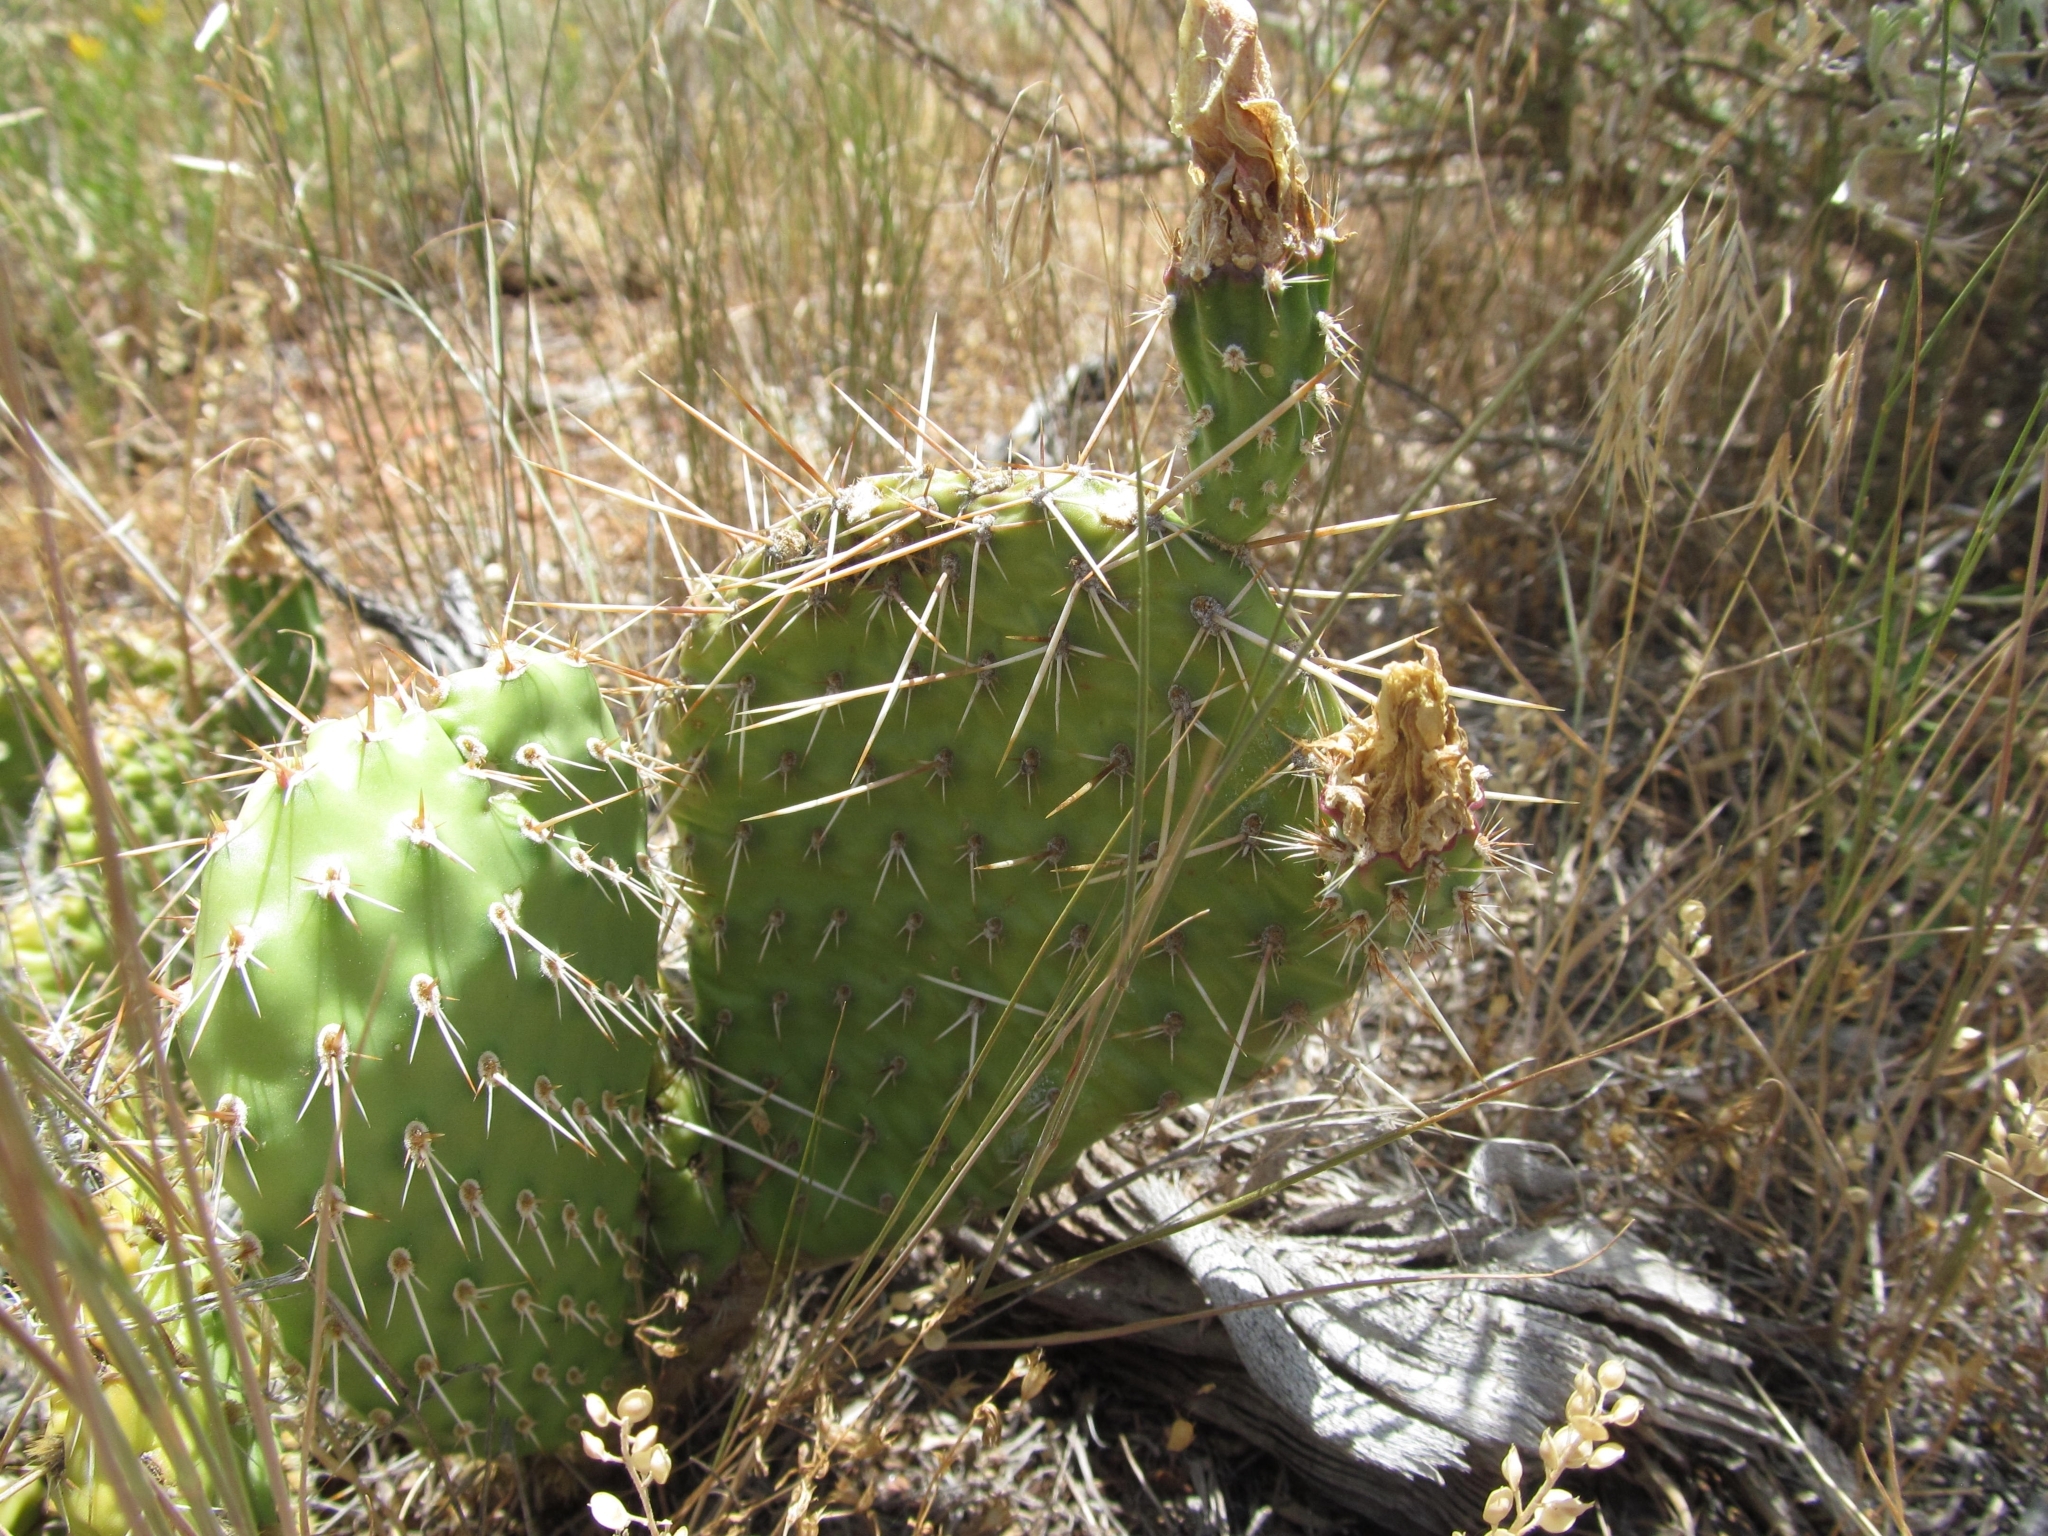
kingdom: Plantae
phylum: Tracheophyta
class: Magnoliopsida
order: Caryophyllales
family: Cactaceae
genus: Opuntia
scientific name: Opuntia polyacantha
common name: Plains prickly-pear
